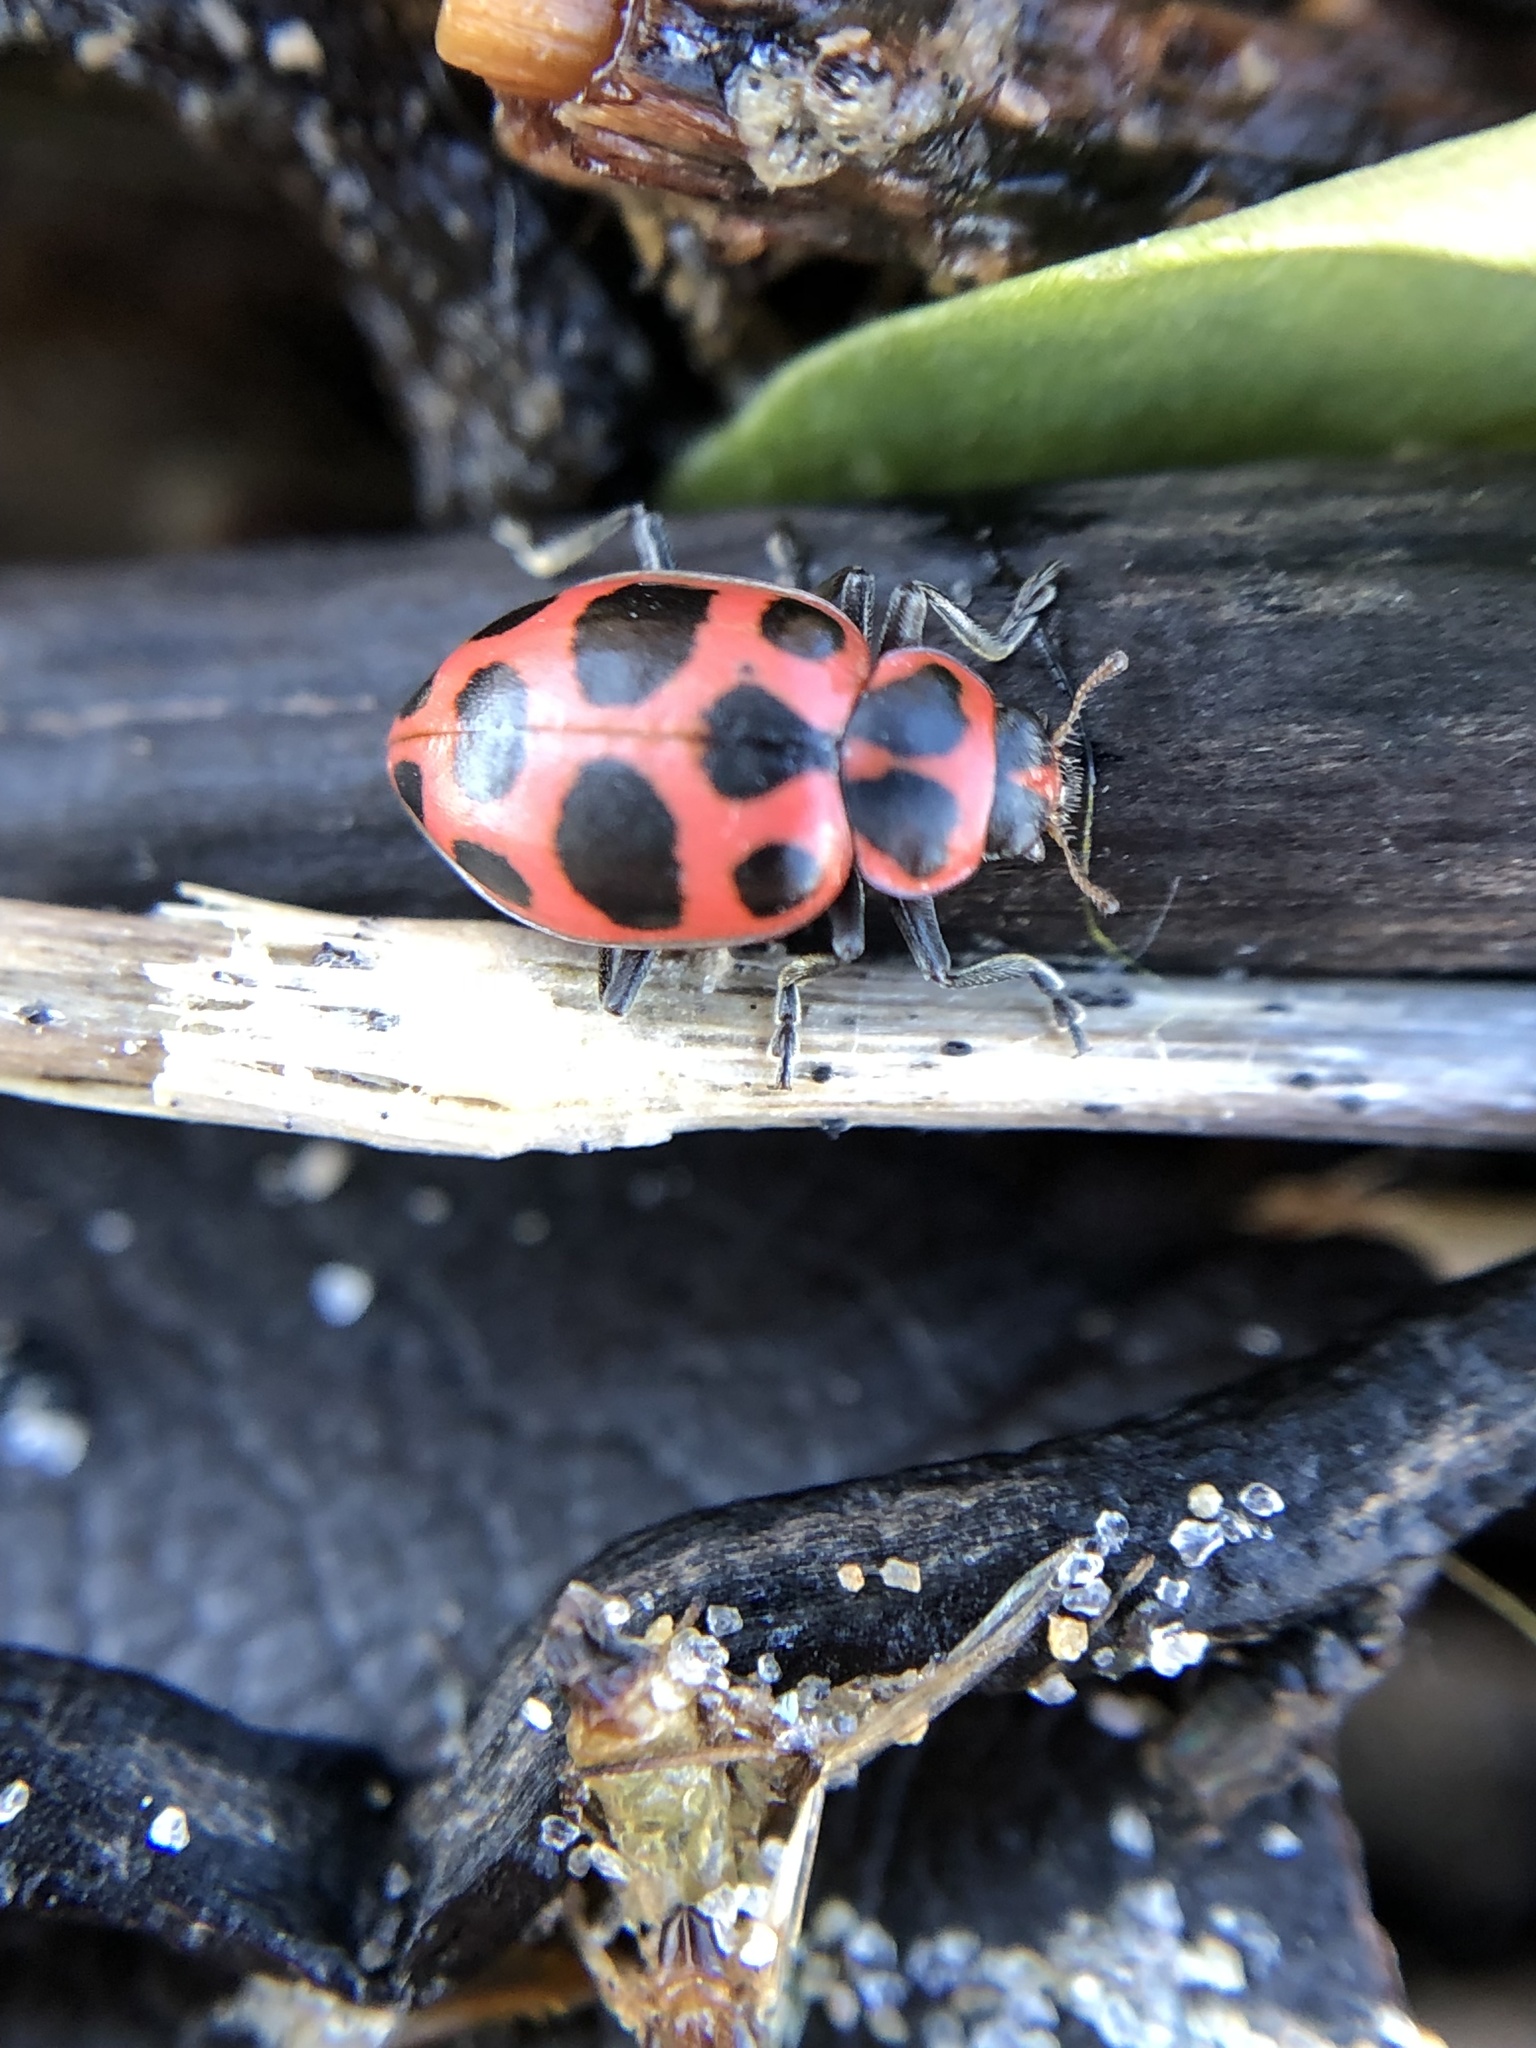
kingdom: Animalia
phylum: Arthropoda
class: Insecta
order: Coleoptera
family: Coccinellidae
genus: Coleomegilla
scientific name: Coleomegilla maculata
